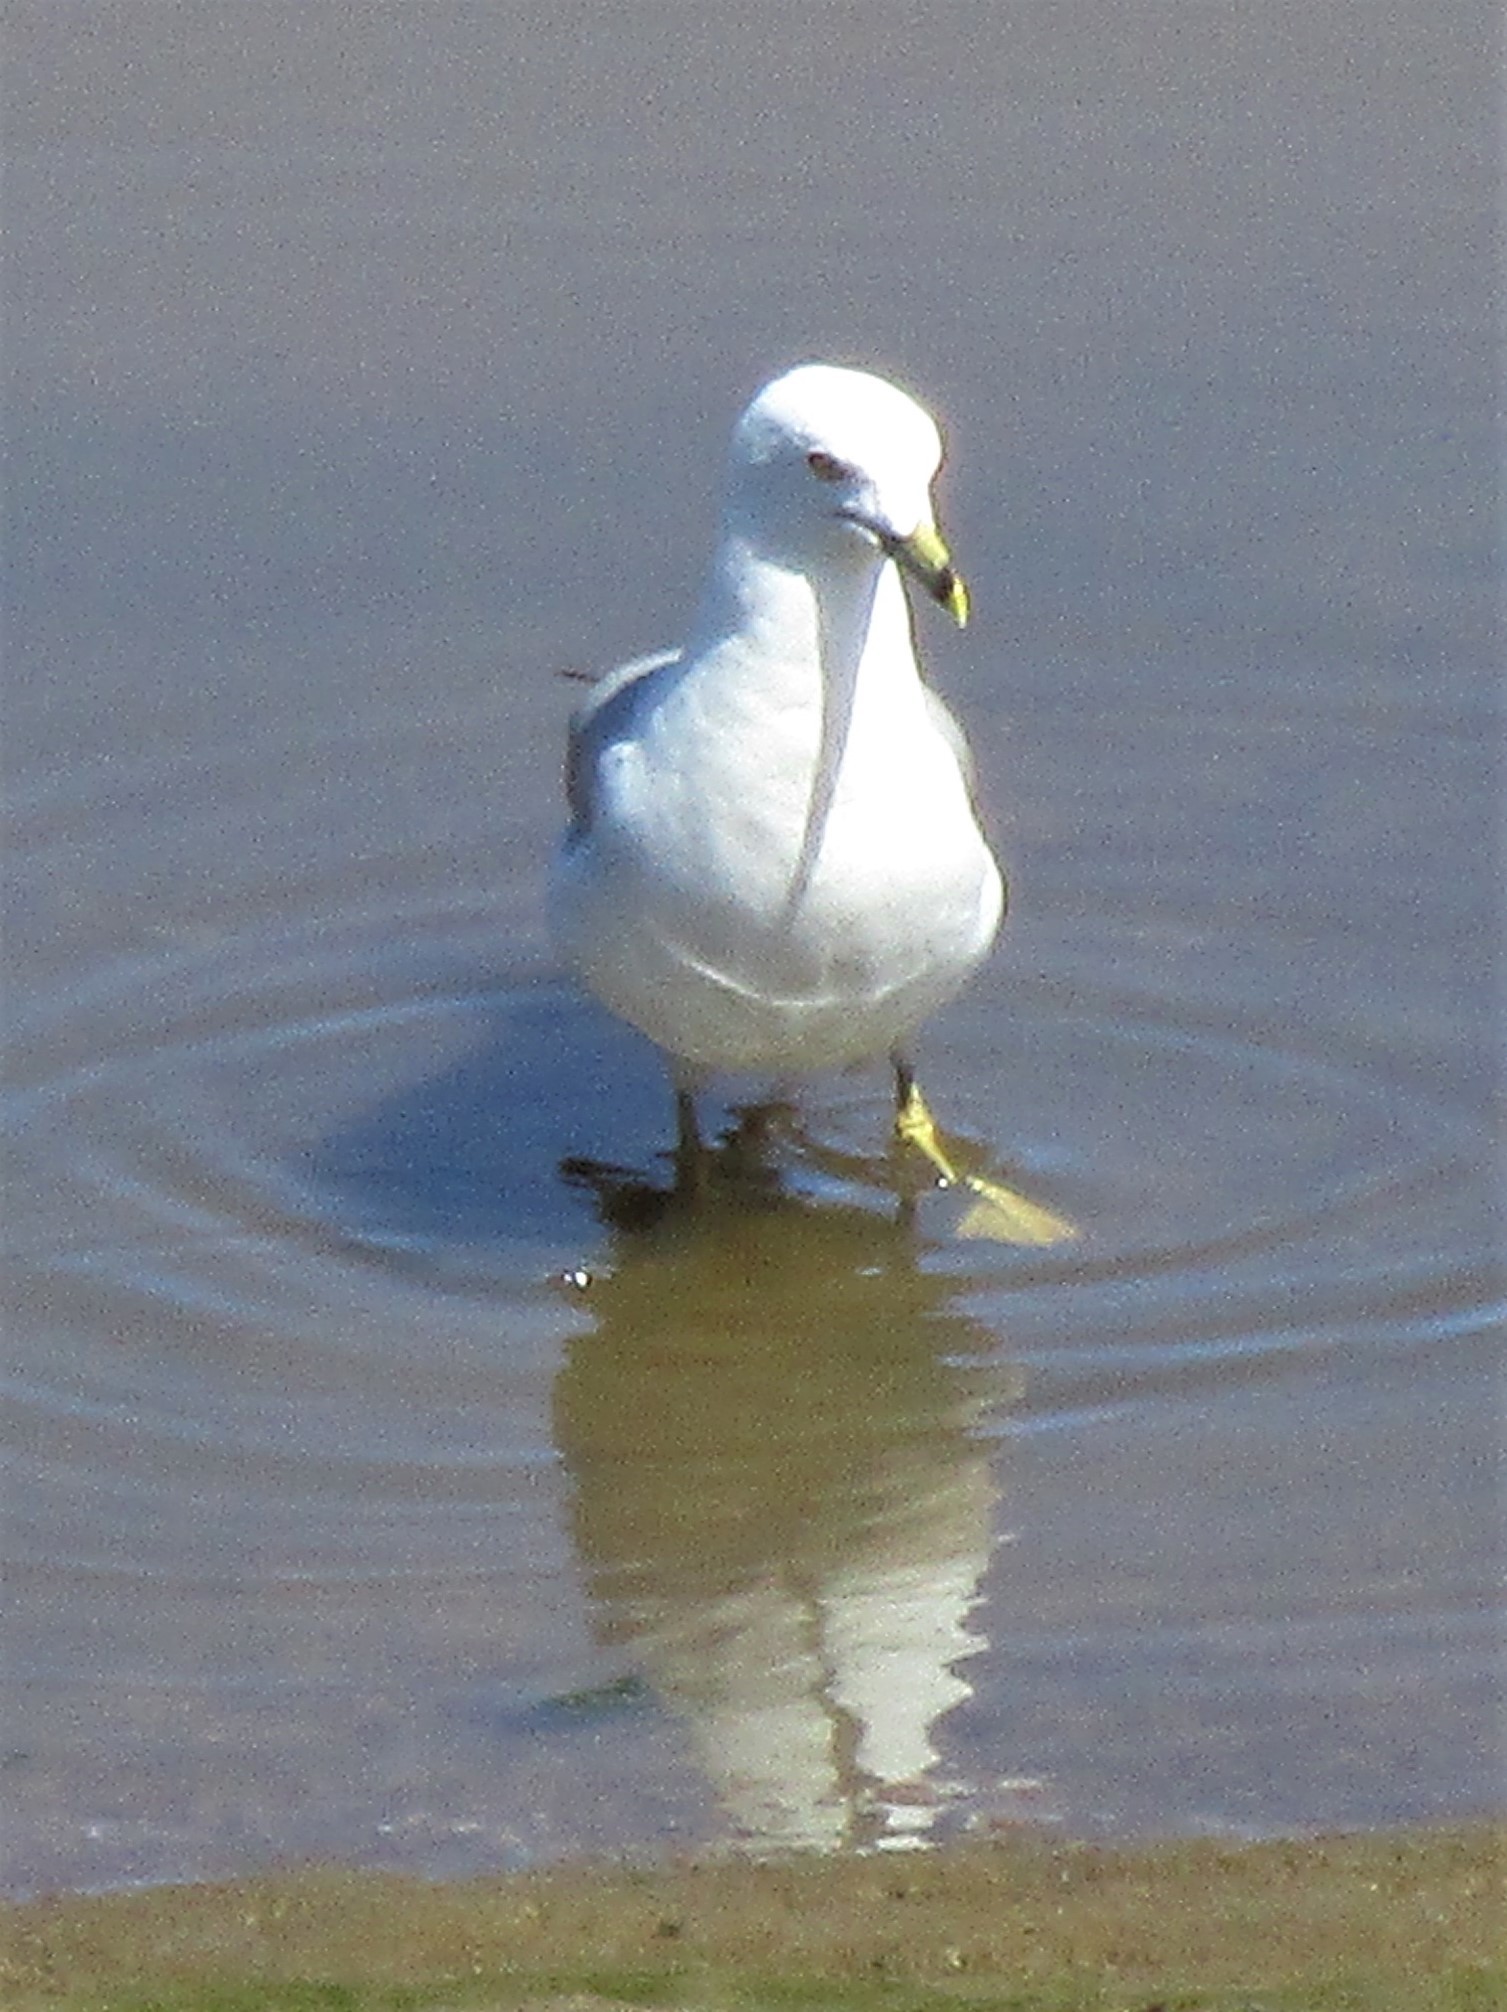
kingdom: Animalia
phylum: Chordata
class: Aves
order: Charadriiformes
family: Laridae
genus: Larus
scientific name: Larus delawarensis
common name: Ring-billed gull
